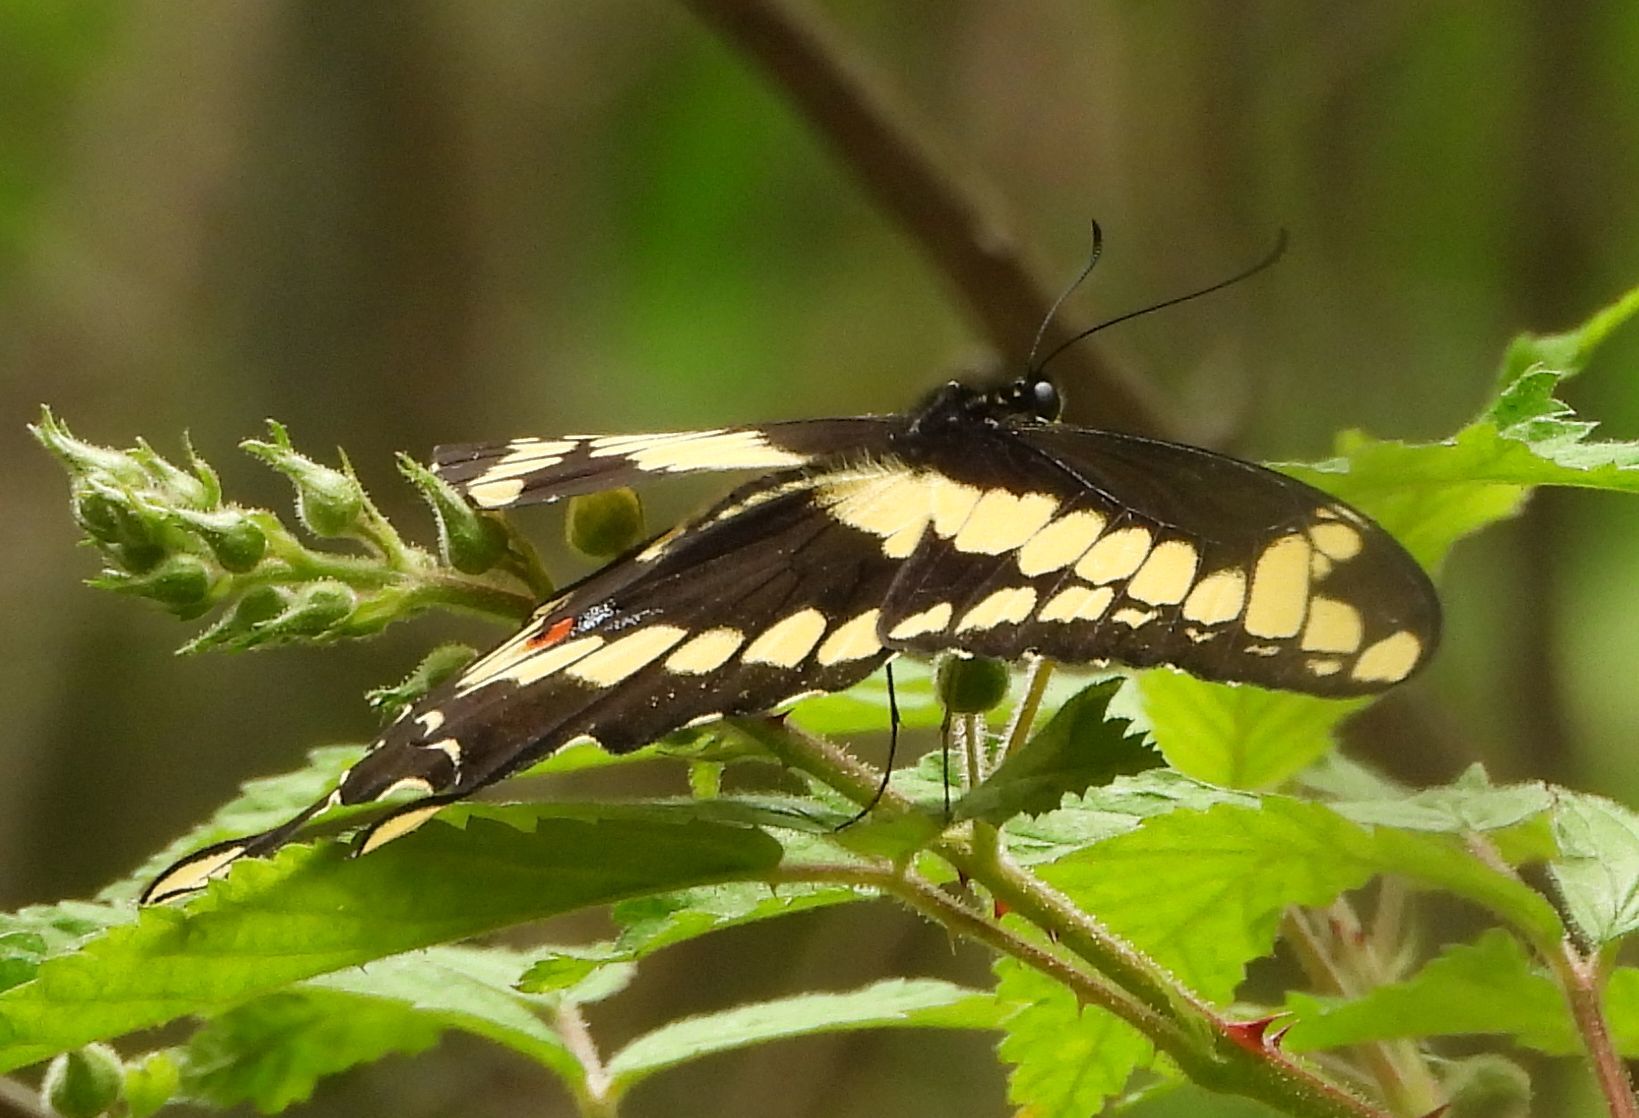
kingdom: Animalia
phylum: Arthropoda
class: Insecta
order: Lepidoptera
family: Papilionidae
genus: Papilio
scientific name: Papilio cresphontes
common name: Giant swallowtail
